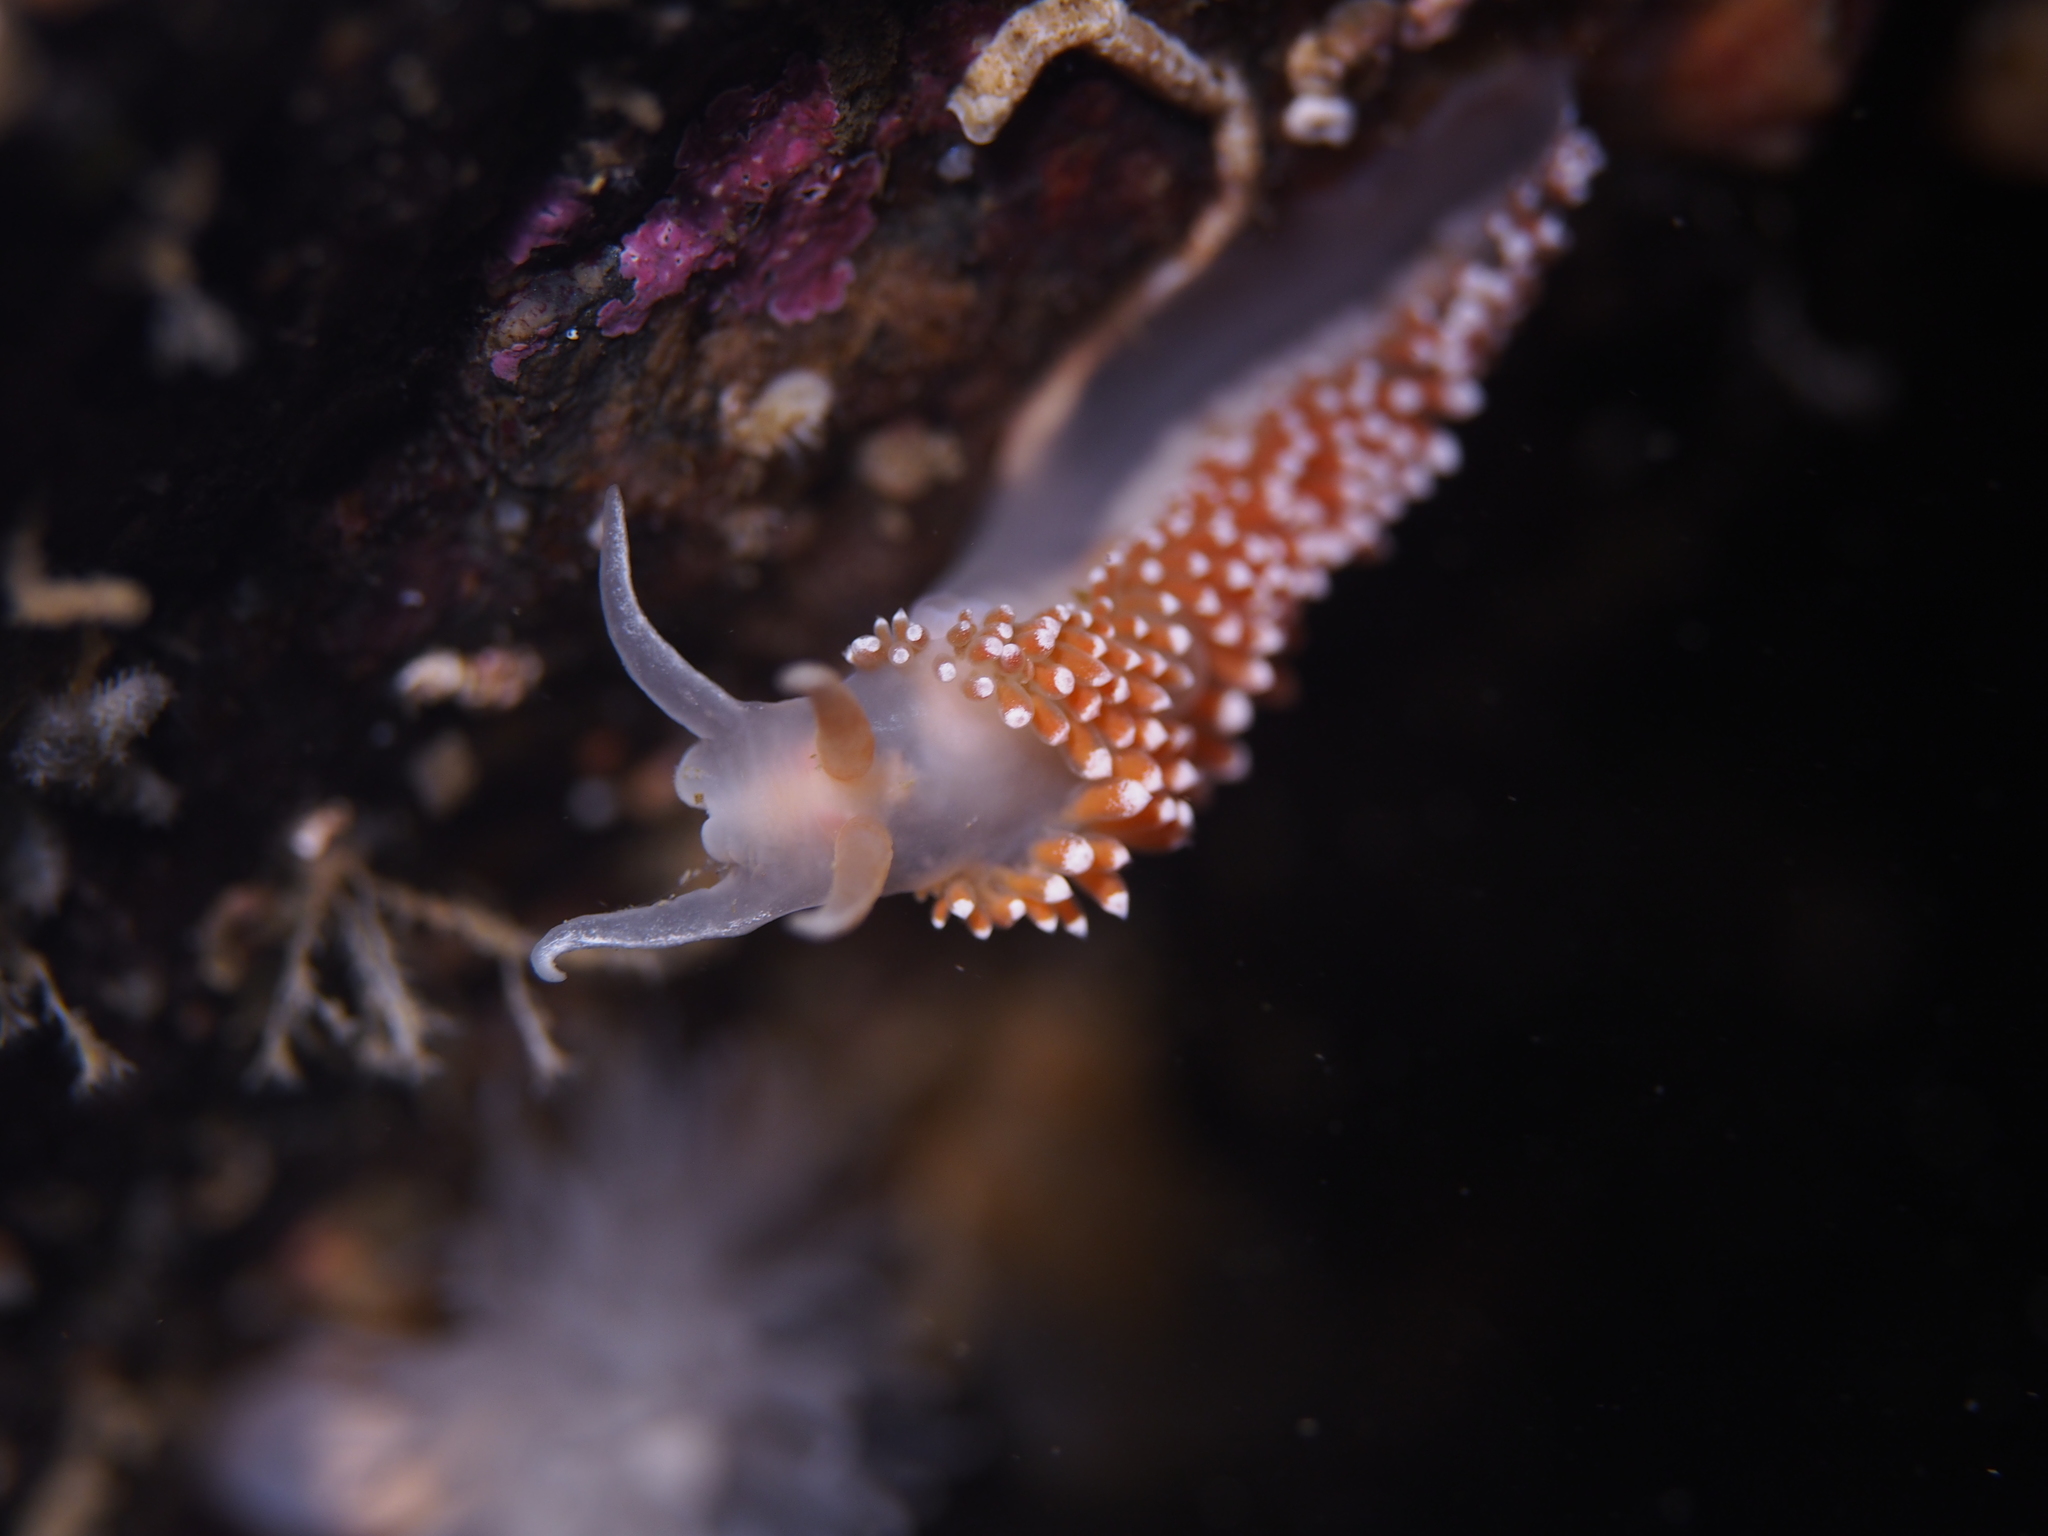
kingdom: Animalia
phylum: Mollusca
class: Gastropoda
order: Nudibranchia
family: Coryphellidae
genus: Coryphella
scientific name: Coryphella verrucosa
